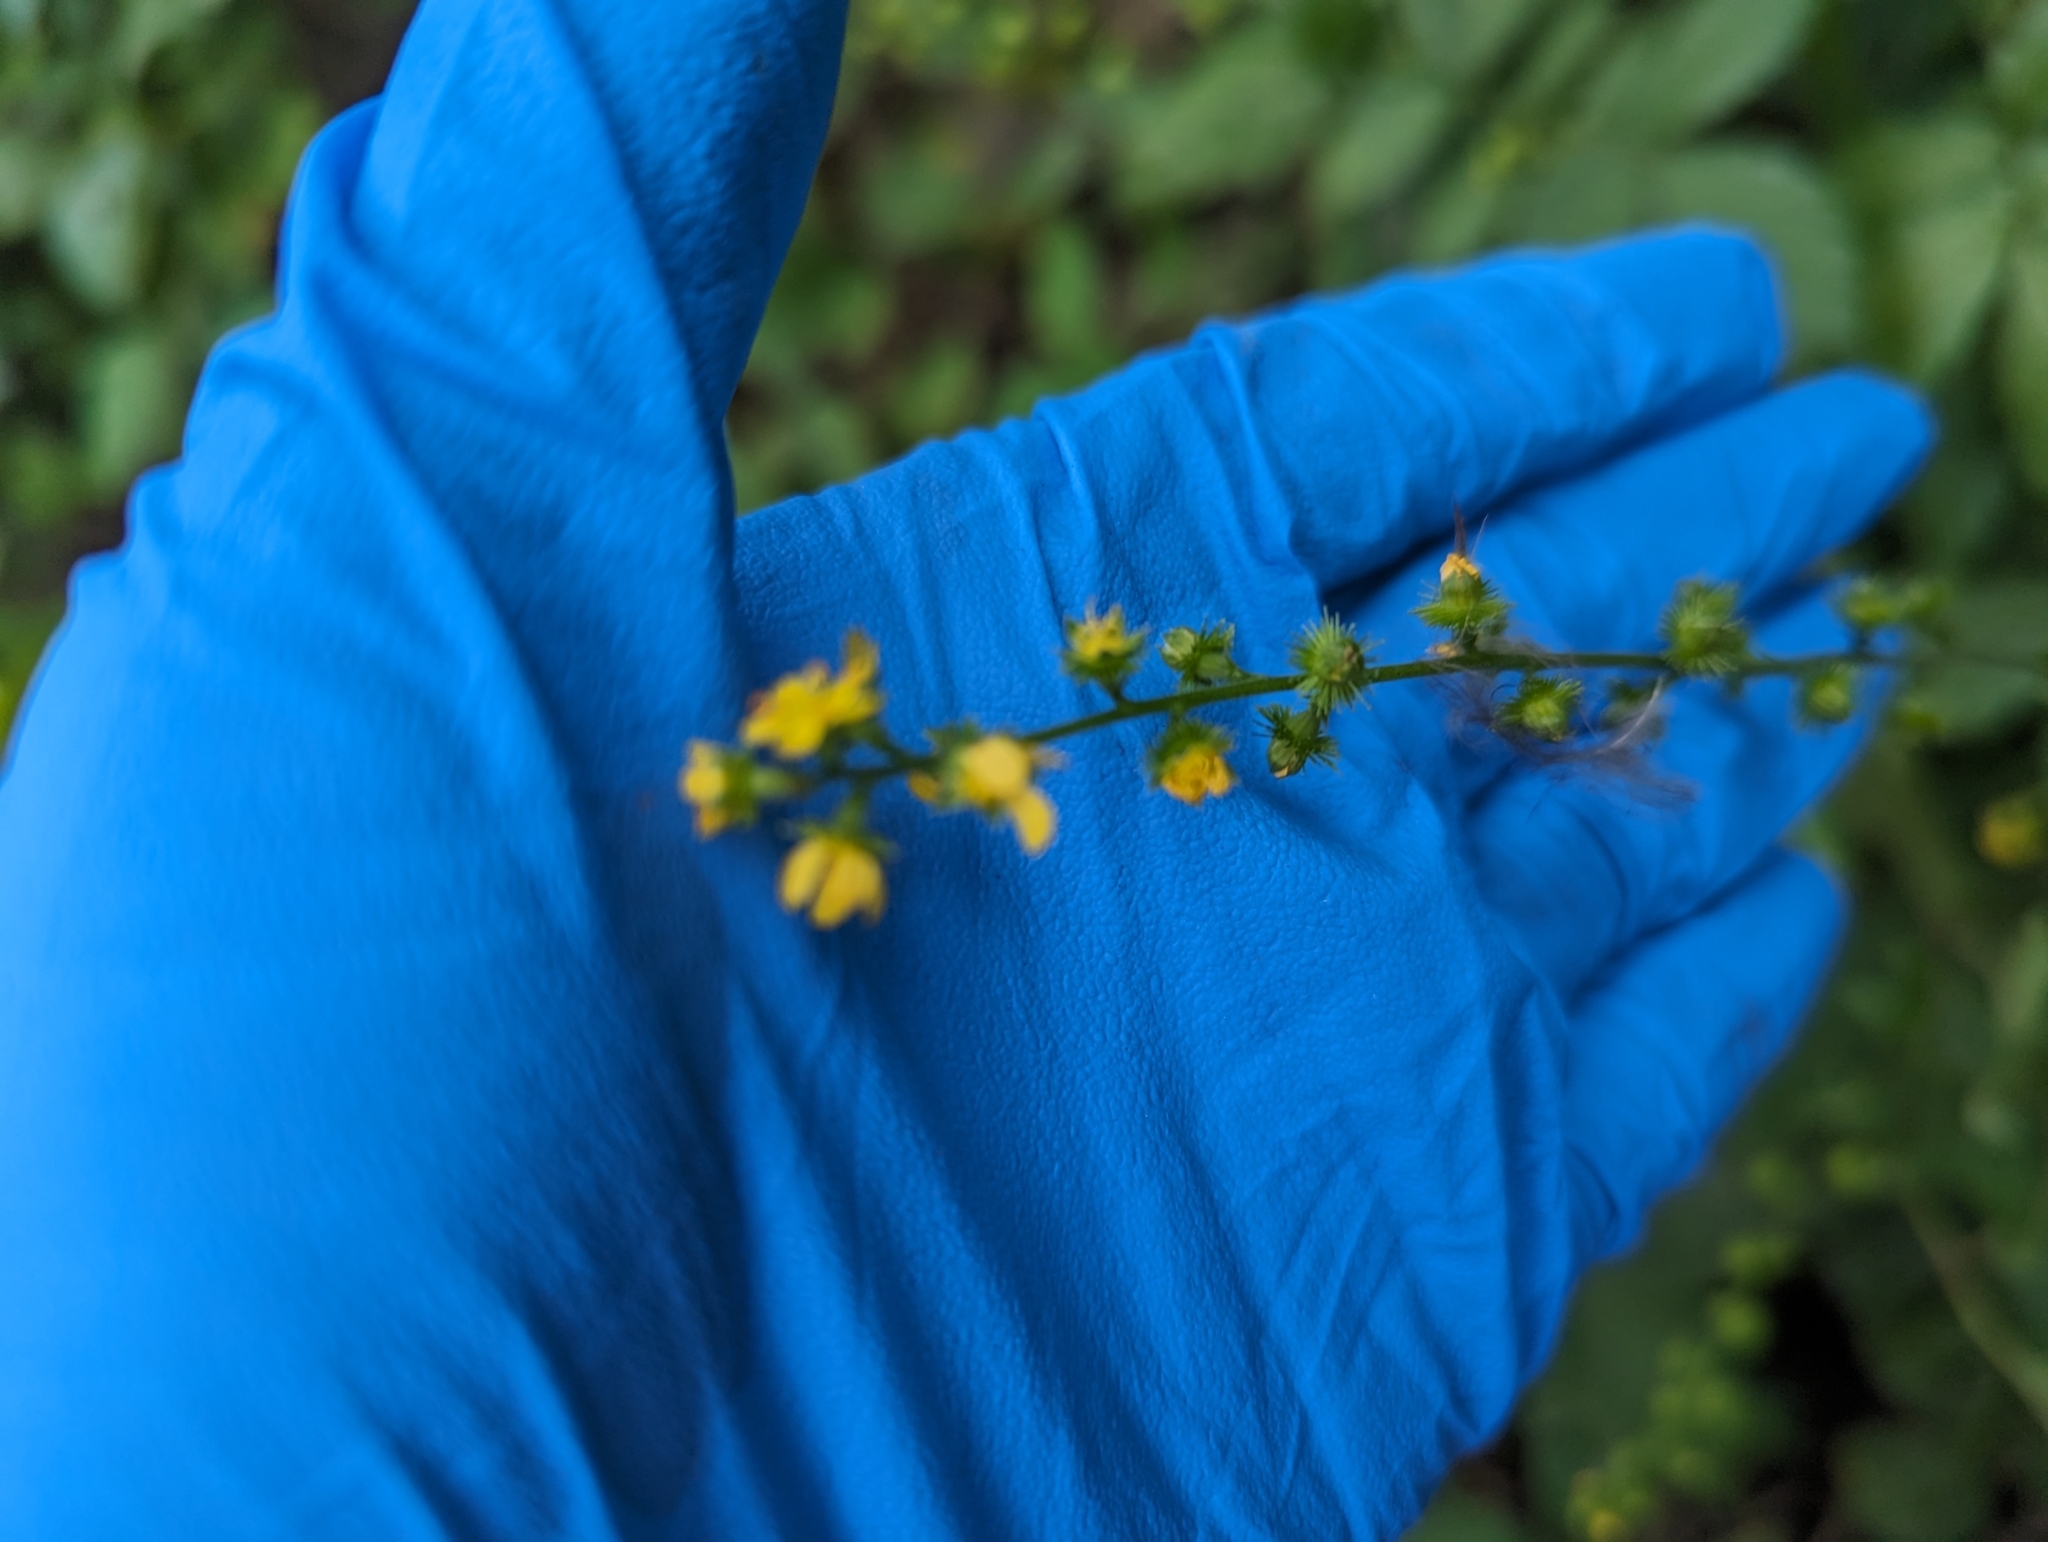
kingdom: Plantae
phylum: Tracheophyta
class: Magnoliopsida
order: Rosales
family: Rosaceae
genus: Agrimonia
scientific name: Agrimonia gryposepala
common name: Common agrimony
